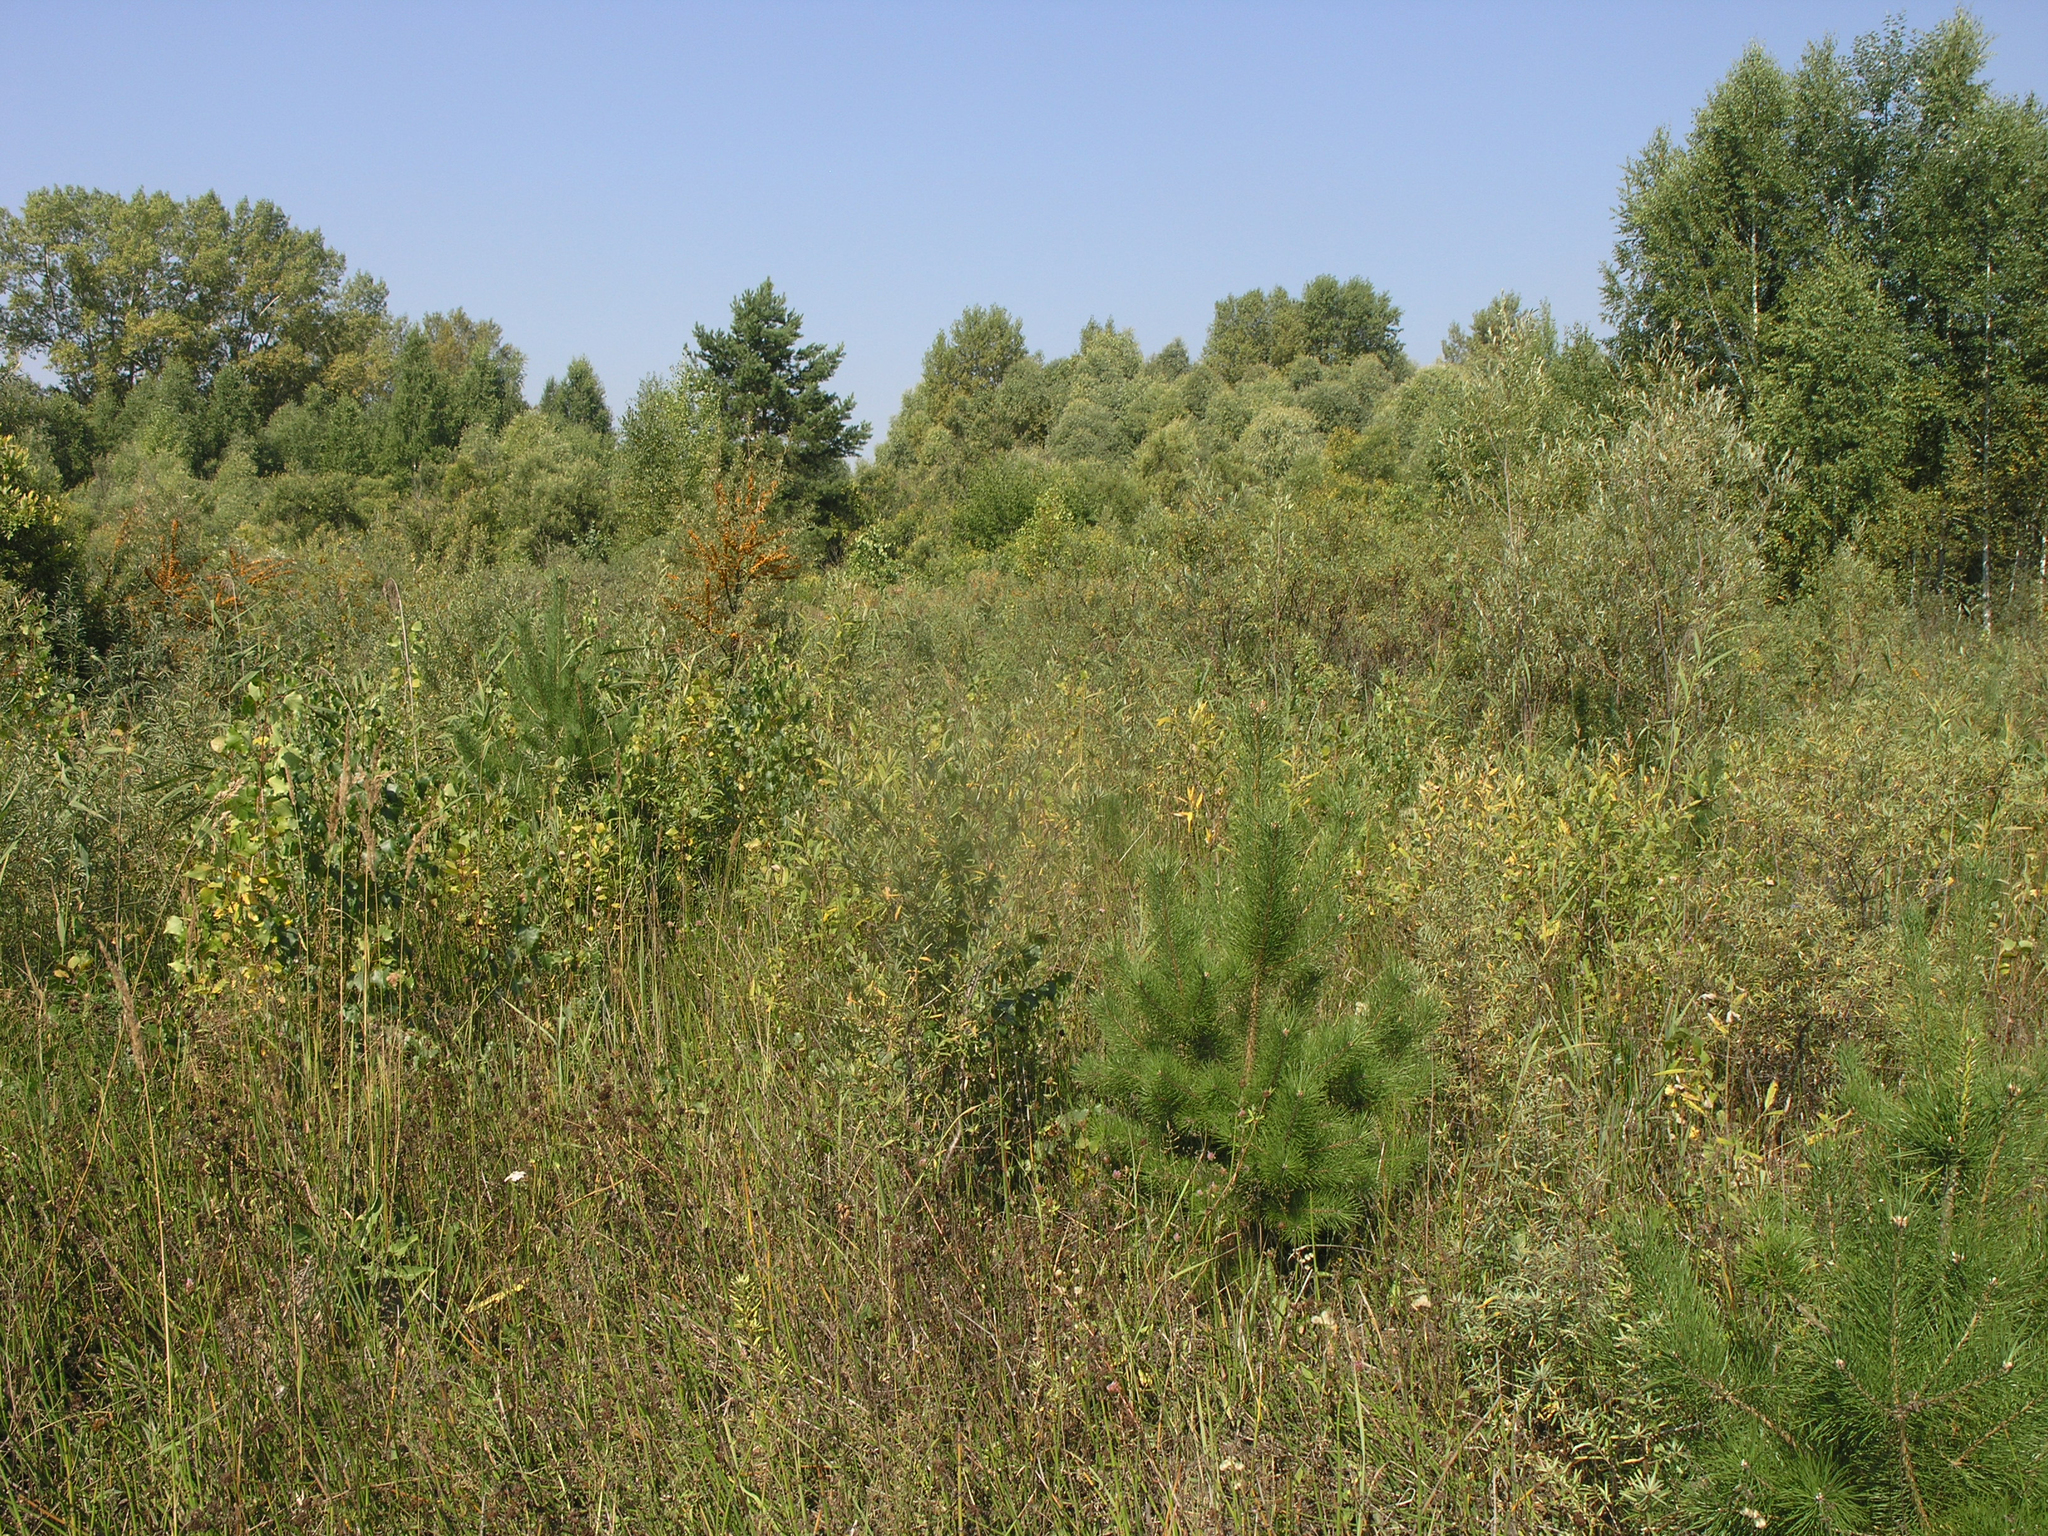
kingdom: Plantae
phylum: Tracheophyta
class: Pinopsida
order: Pinales
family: Pinaceae
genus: Pinus
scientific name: Pinus sylvestris
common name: Scots pine
